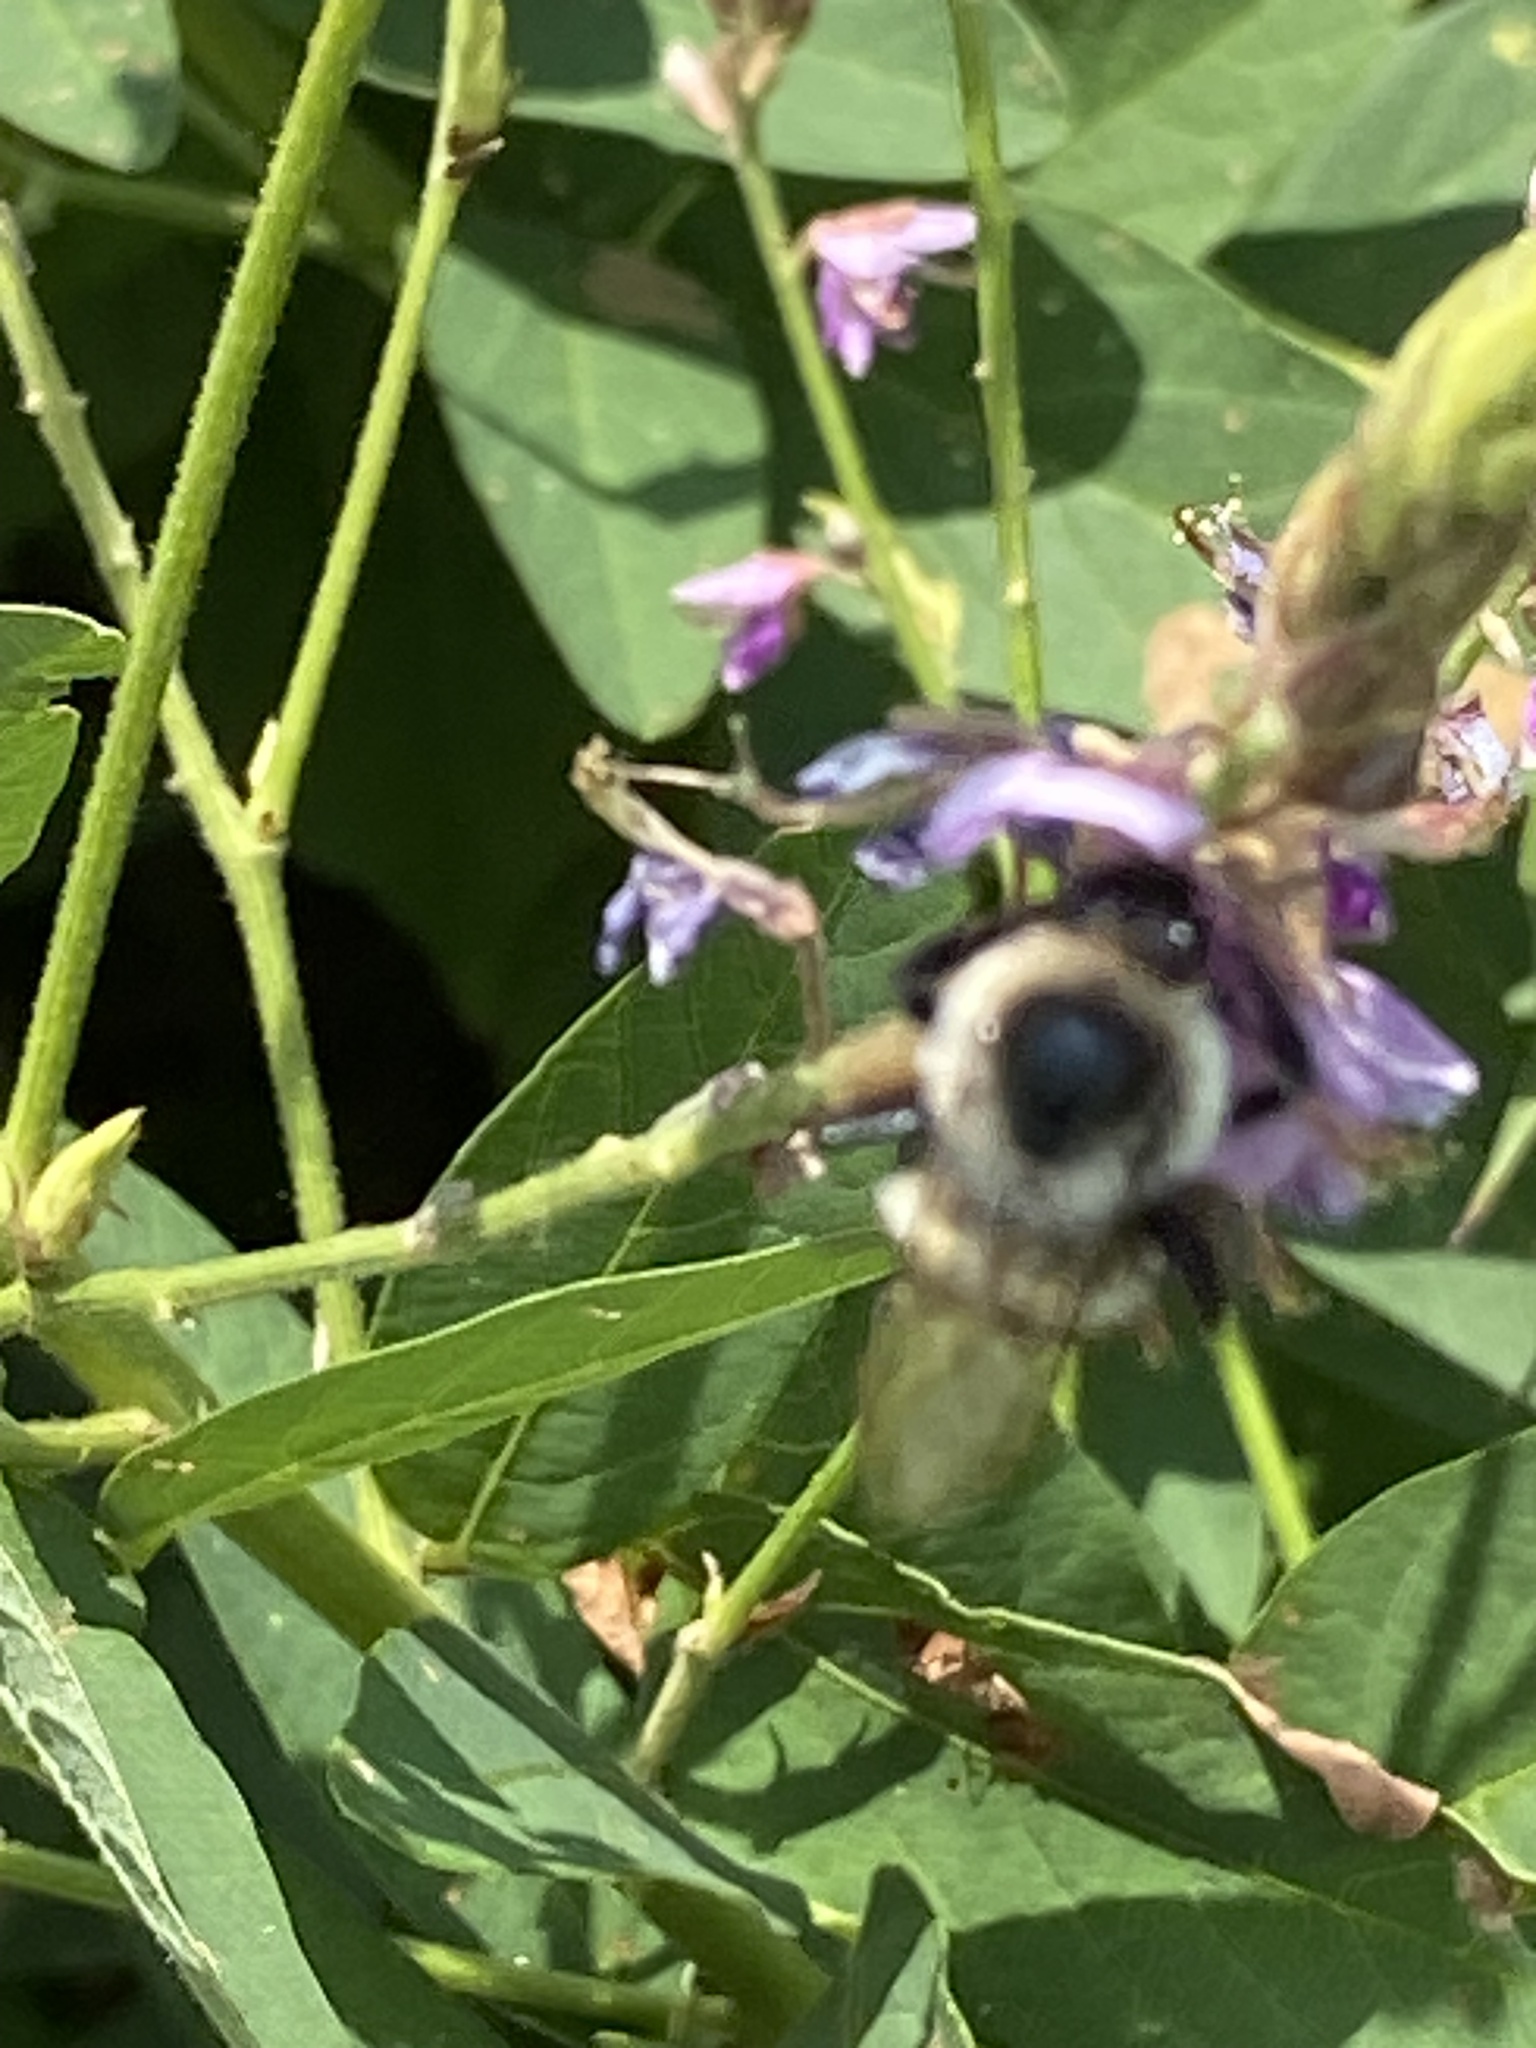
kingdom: Animalia
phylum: Arthropoda
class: Insecta
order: Hymenoptera
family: Apidae
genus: Bombus
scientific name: Bombus impatiens
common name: Common eastern bumble bee
